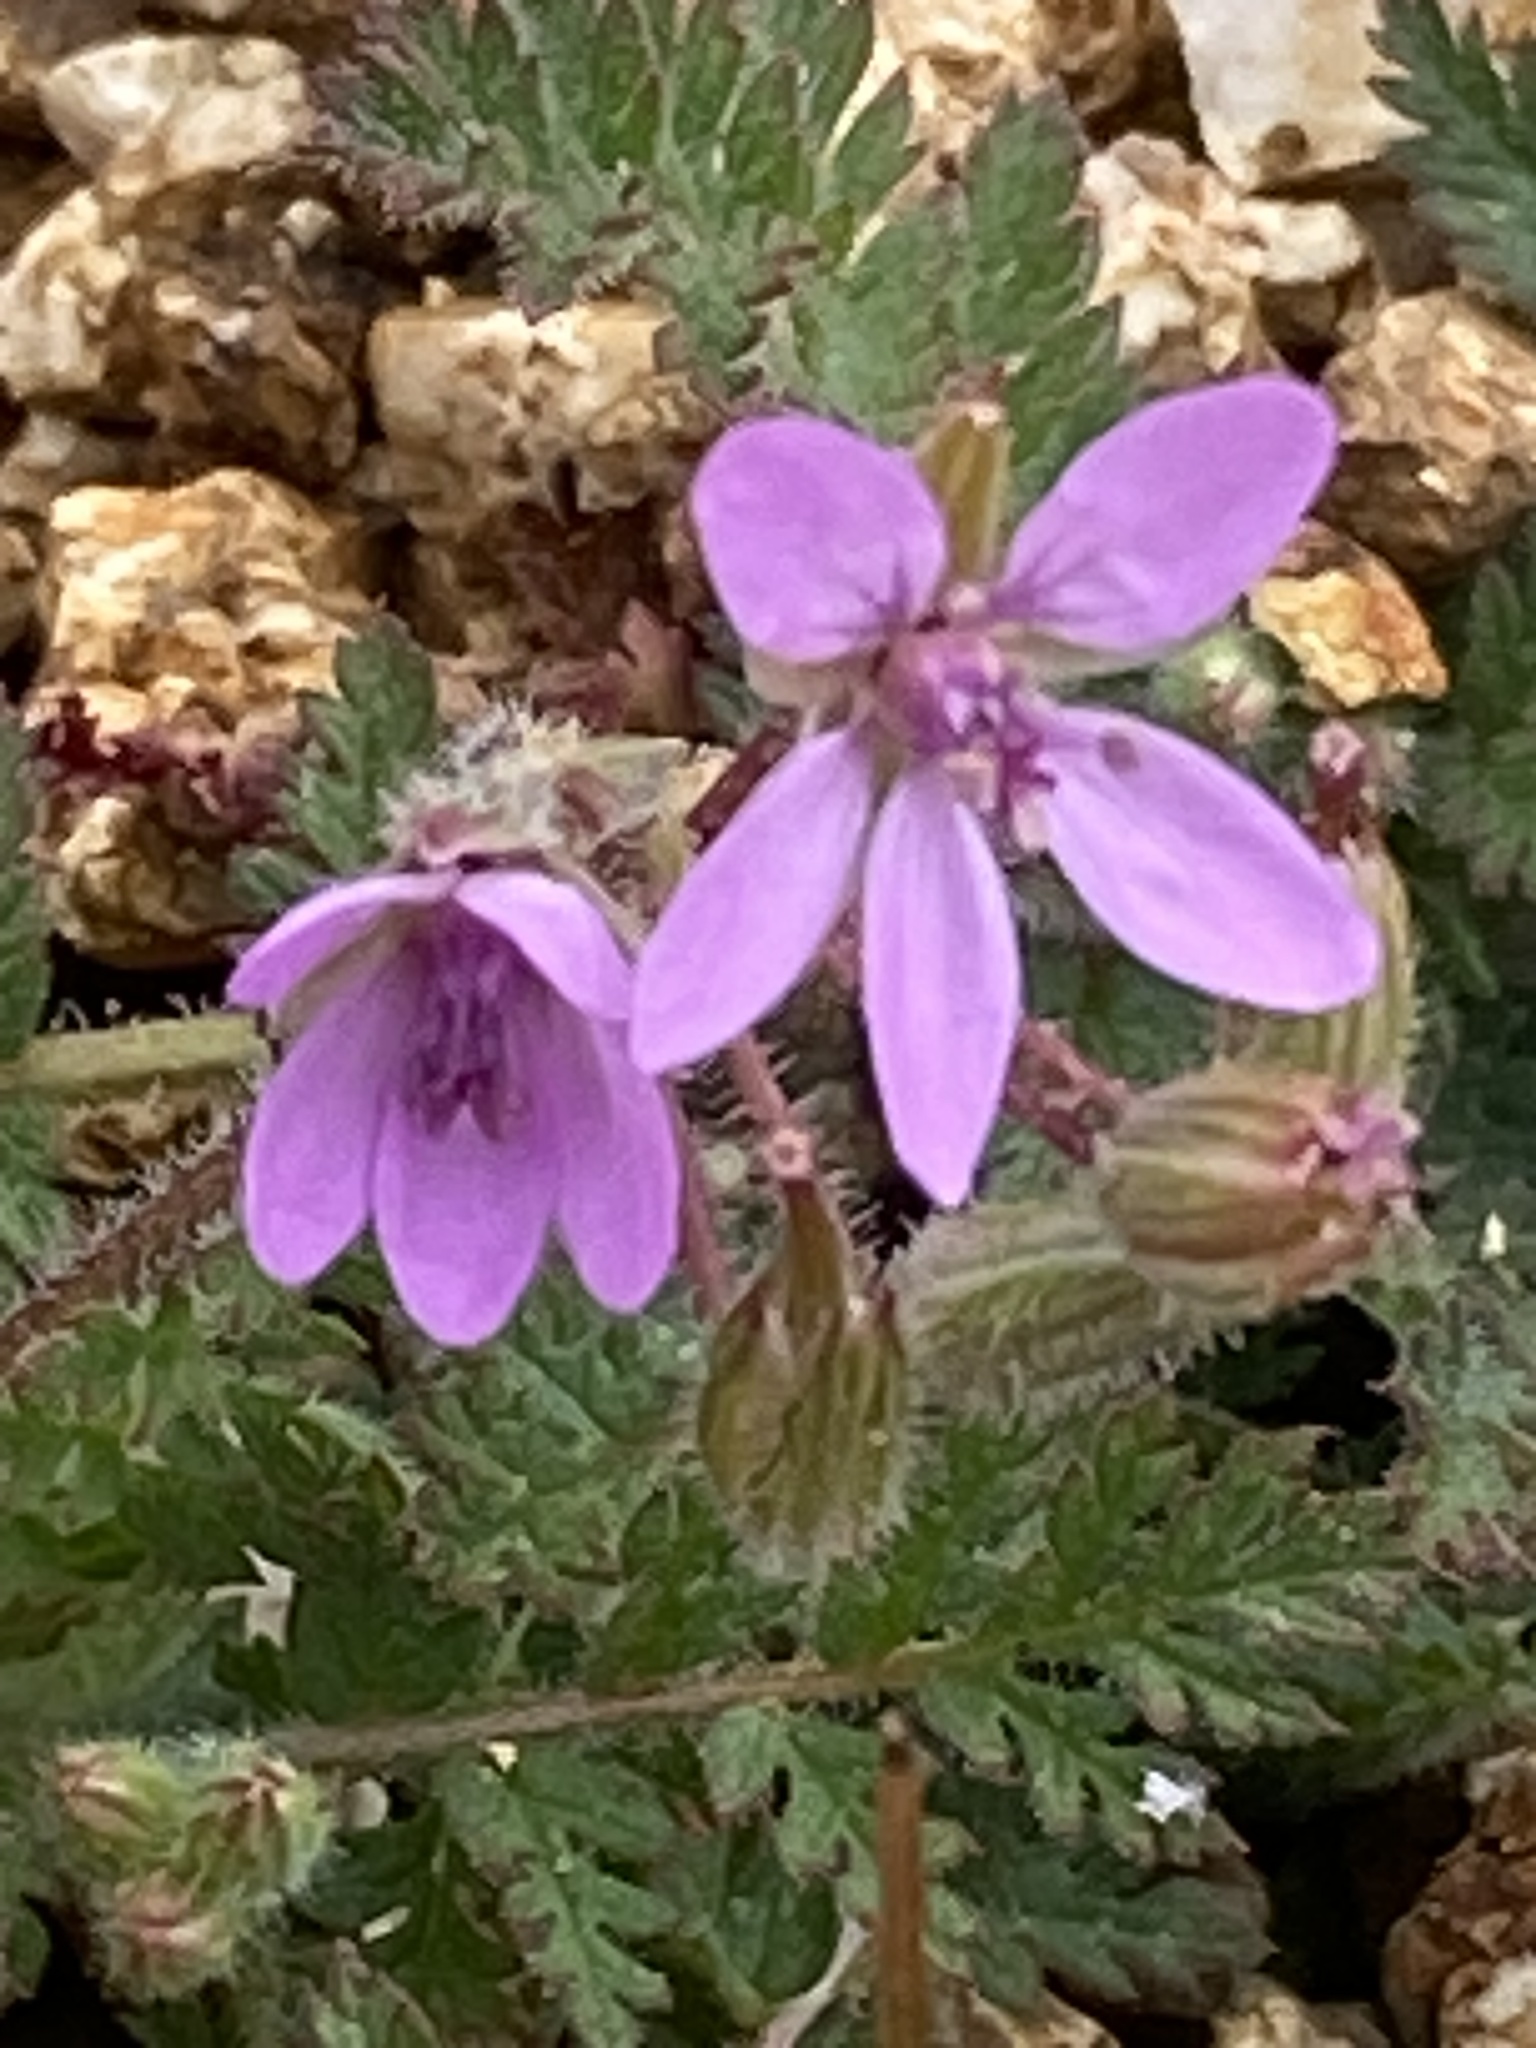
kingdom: Plantae
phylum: Tracheophyta
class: Magnoliopsida
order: Geraniales
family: Geraniaceae
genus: Erodium
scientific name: Erodium cicutarium
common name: Common stork's-bill
